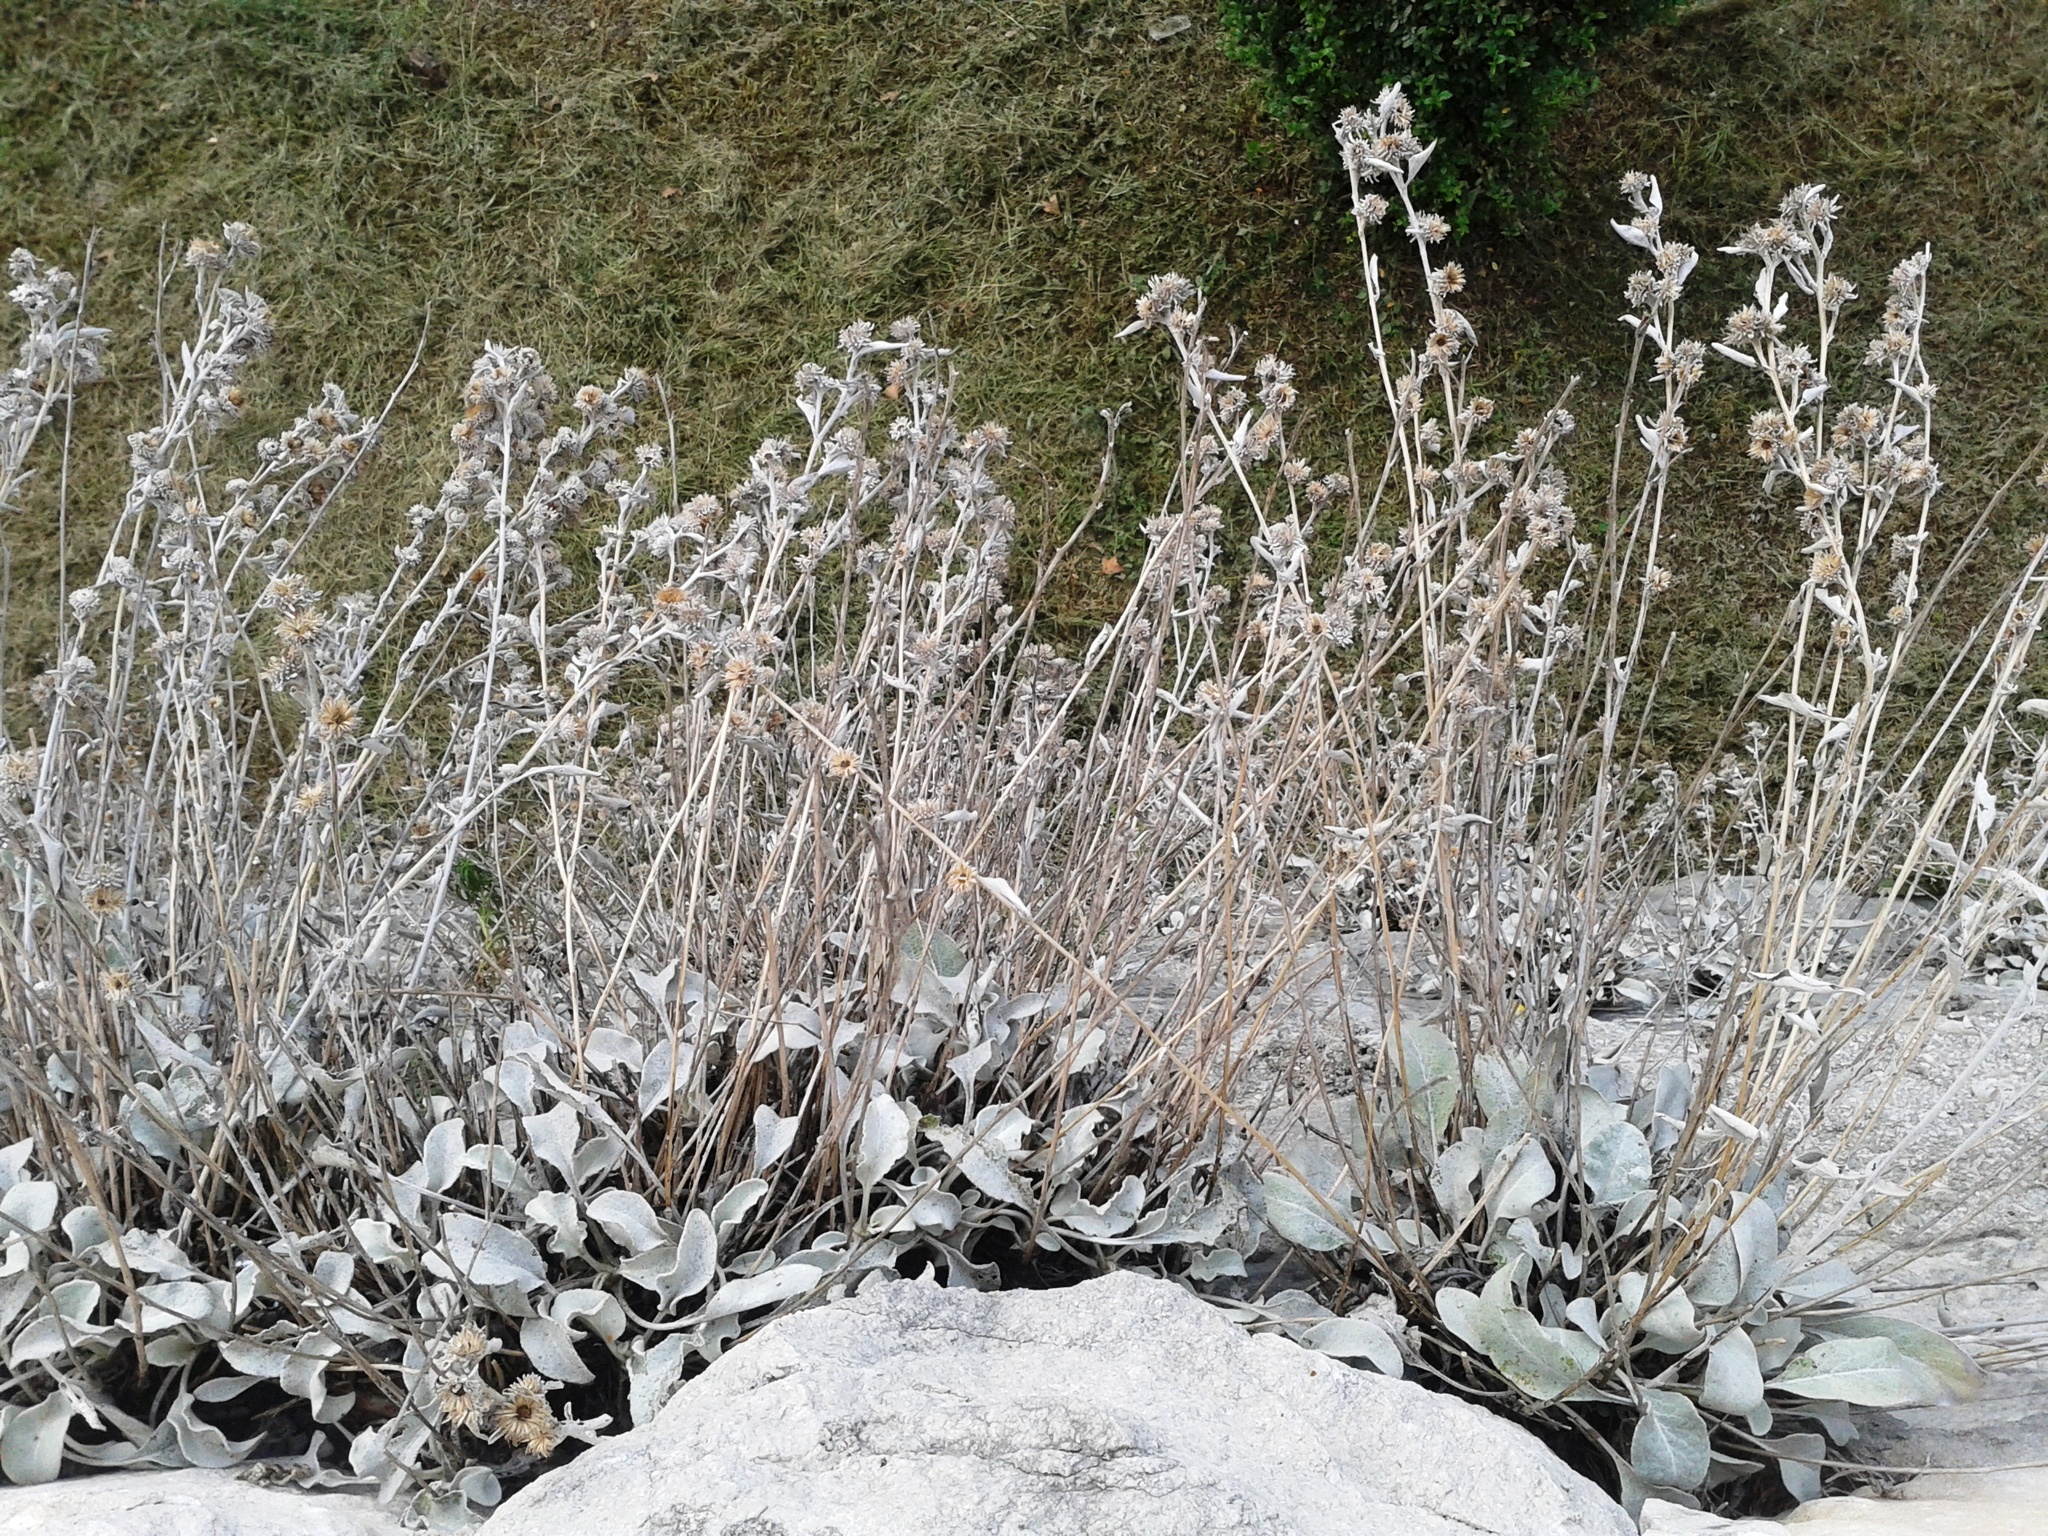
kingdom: Plantae
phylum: Tracheophyta
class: Magnoliopsida
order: Asterales
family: Asteraceae
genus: Pentanema
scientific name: Pentanema verbascifolium
